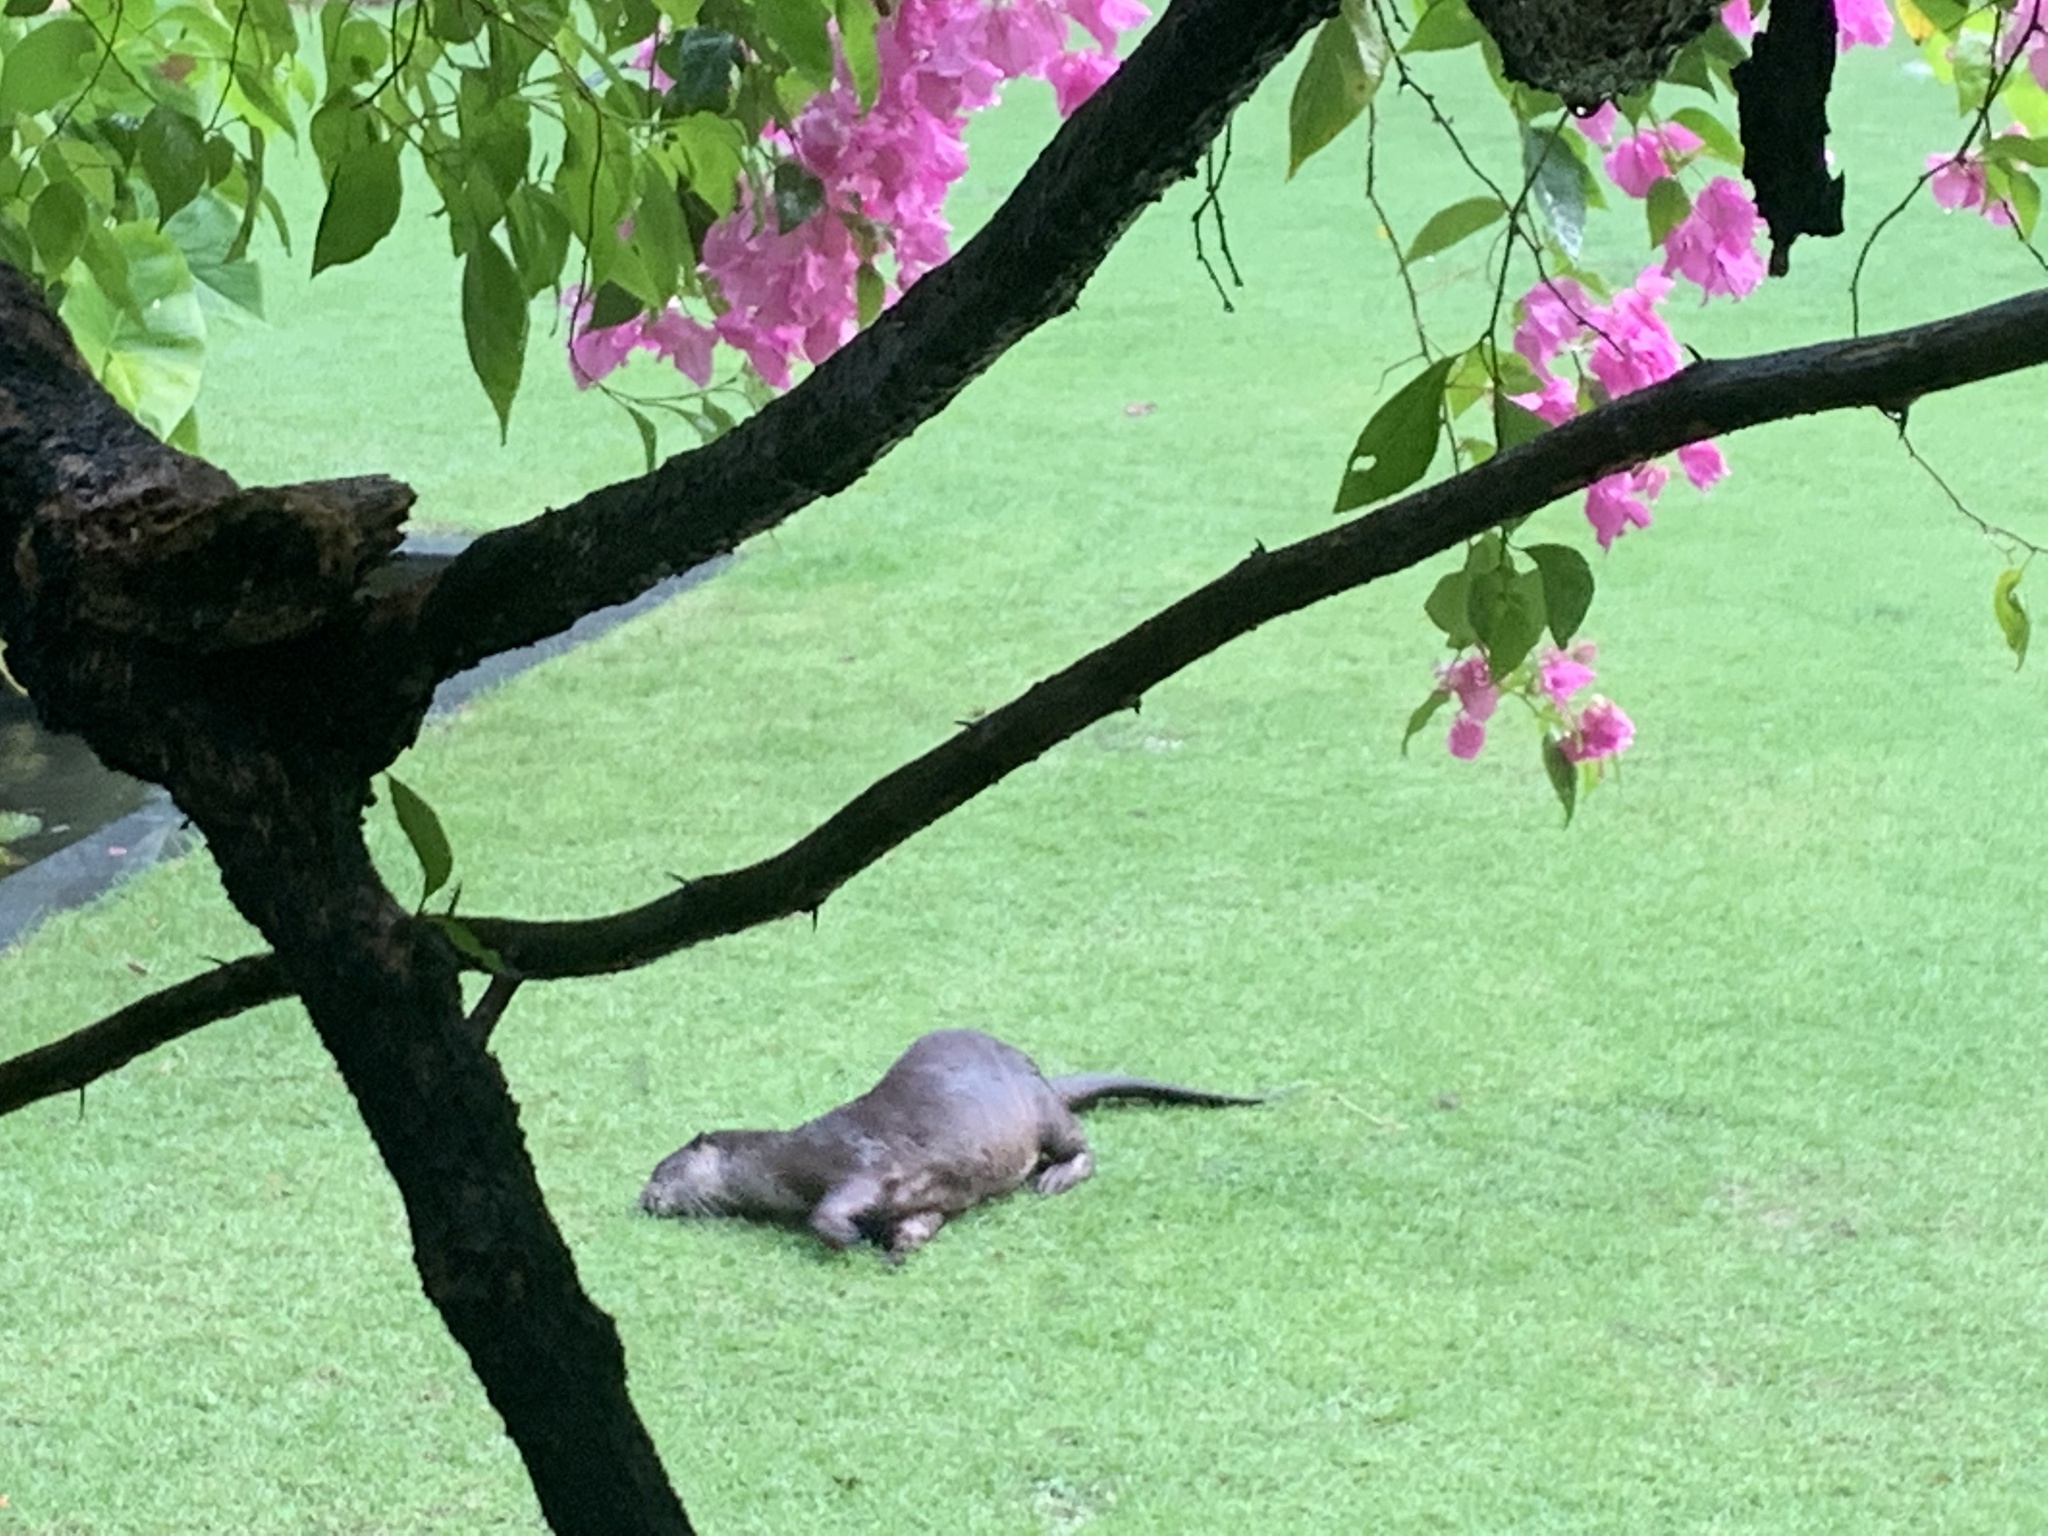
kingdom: Animalia
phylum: Chordata
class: Mammalia
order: Carnivora
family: Mustelidae
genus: Lutrogale
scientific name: Lutrogale perspicillata
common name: Smooth-coated otter
